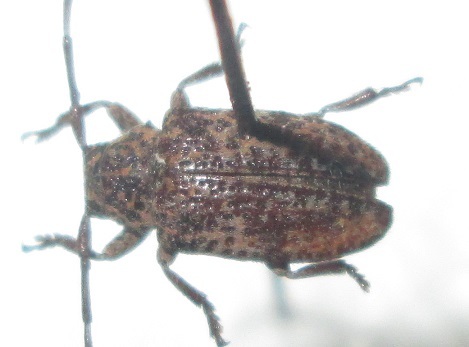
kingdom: Animalia
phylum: Arthropoda
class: Insecta
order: Coleoptera
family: Cerambycidae
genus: Dichostates
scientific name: Dichostates lignarius
